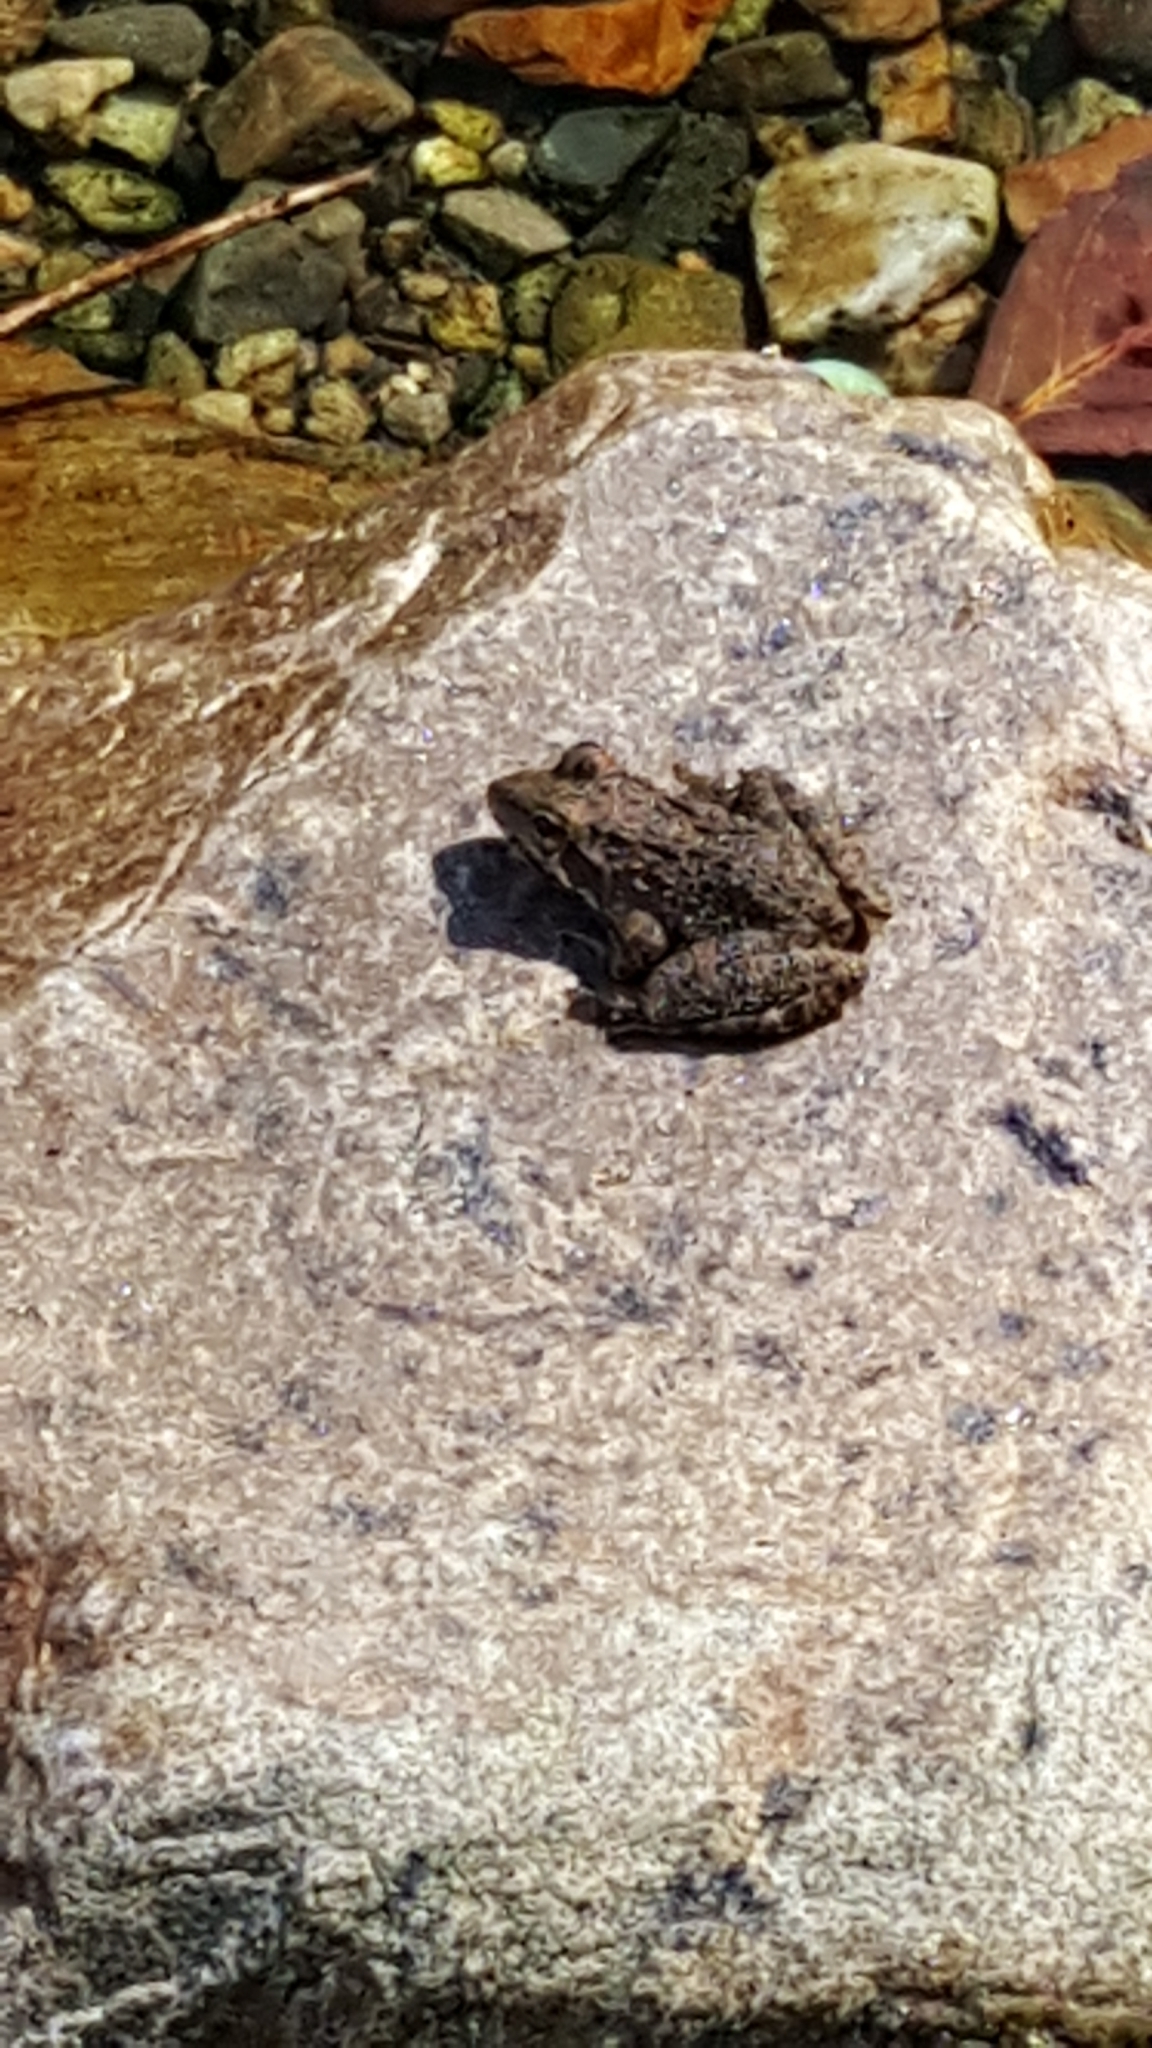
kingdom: Animalia
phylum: Chordata
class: Amphibia
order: Anura
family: Pyxicephalidae
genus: Amietia
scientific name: Amietia delalandii
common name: Delalande's river frog
